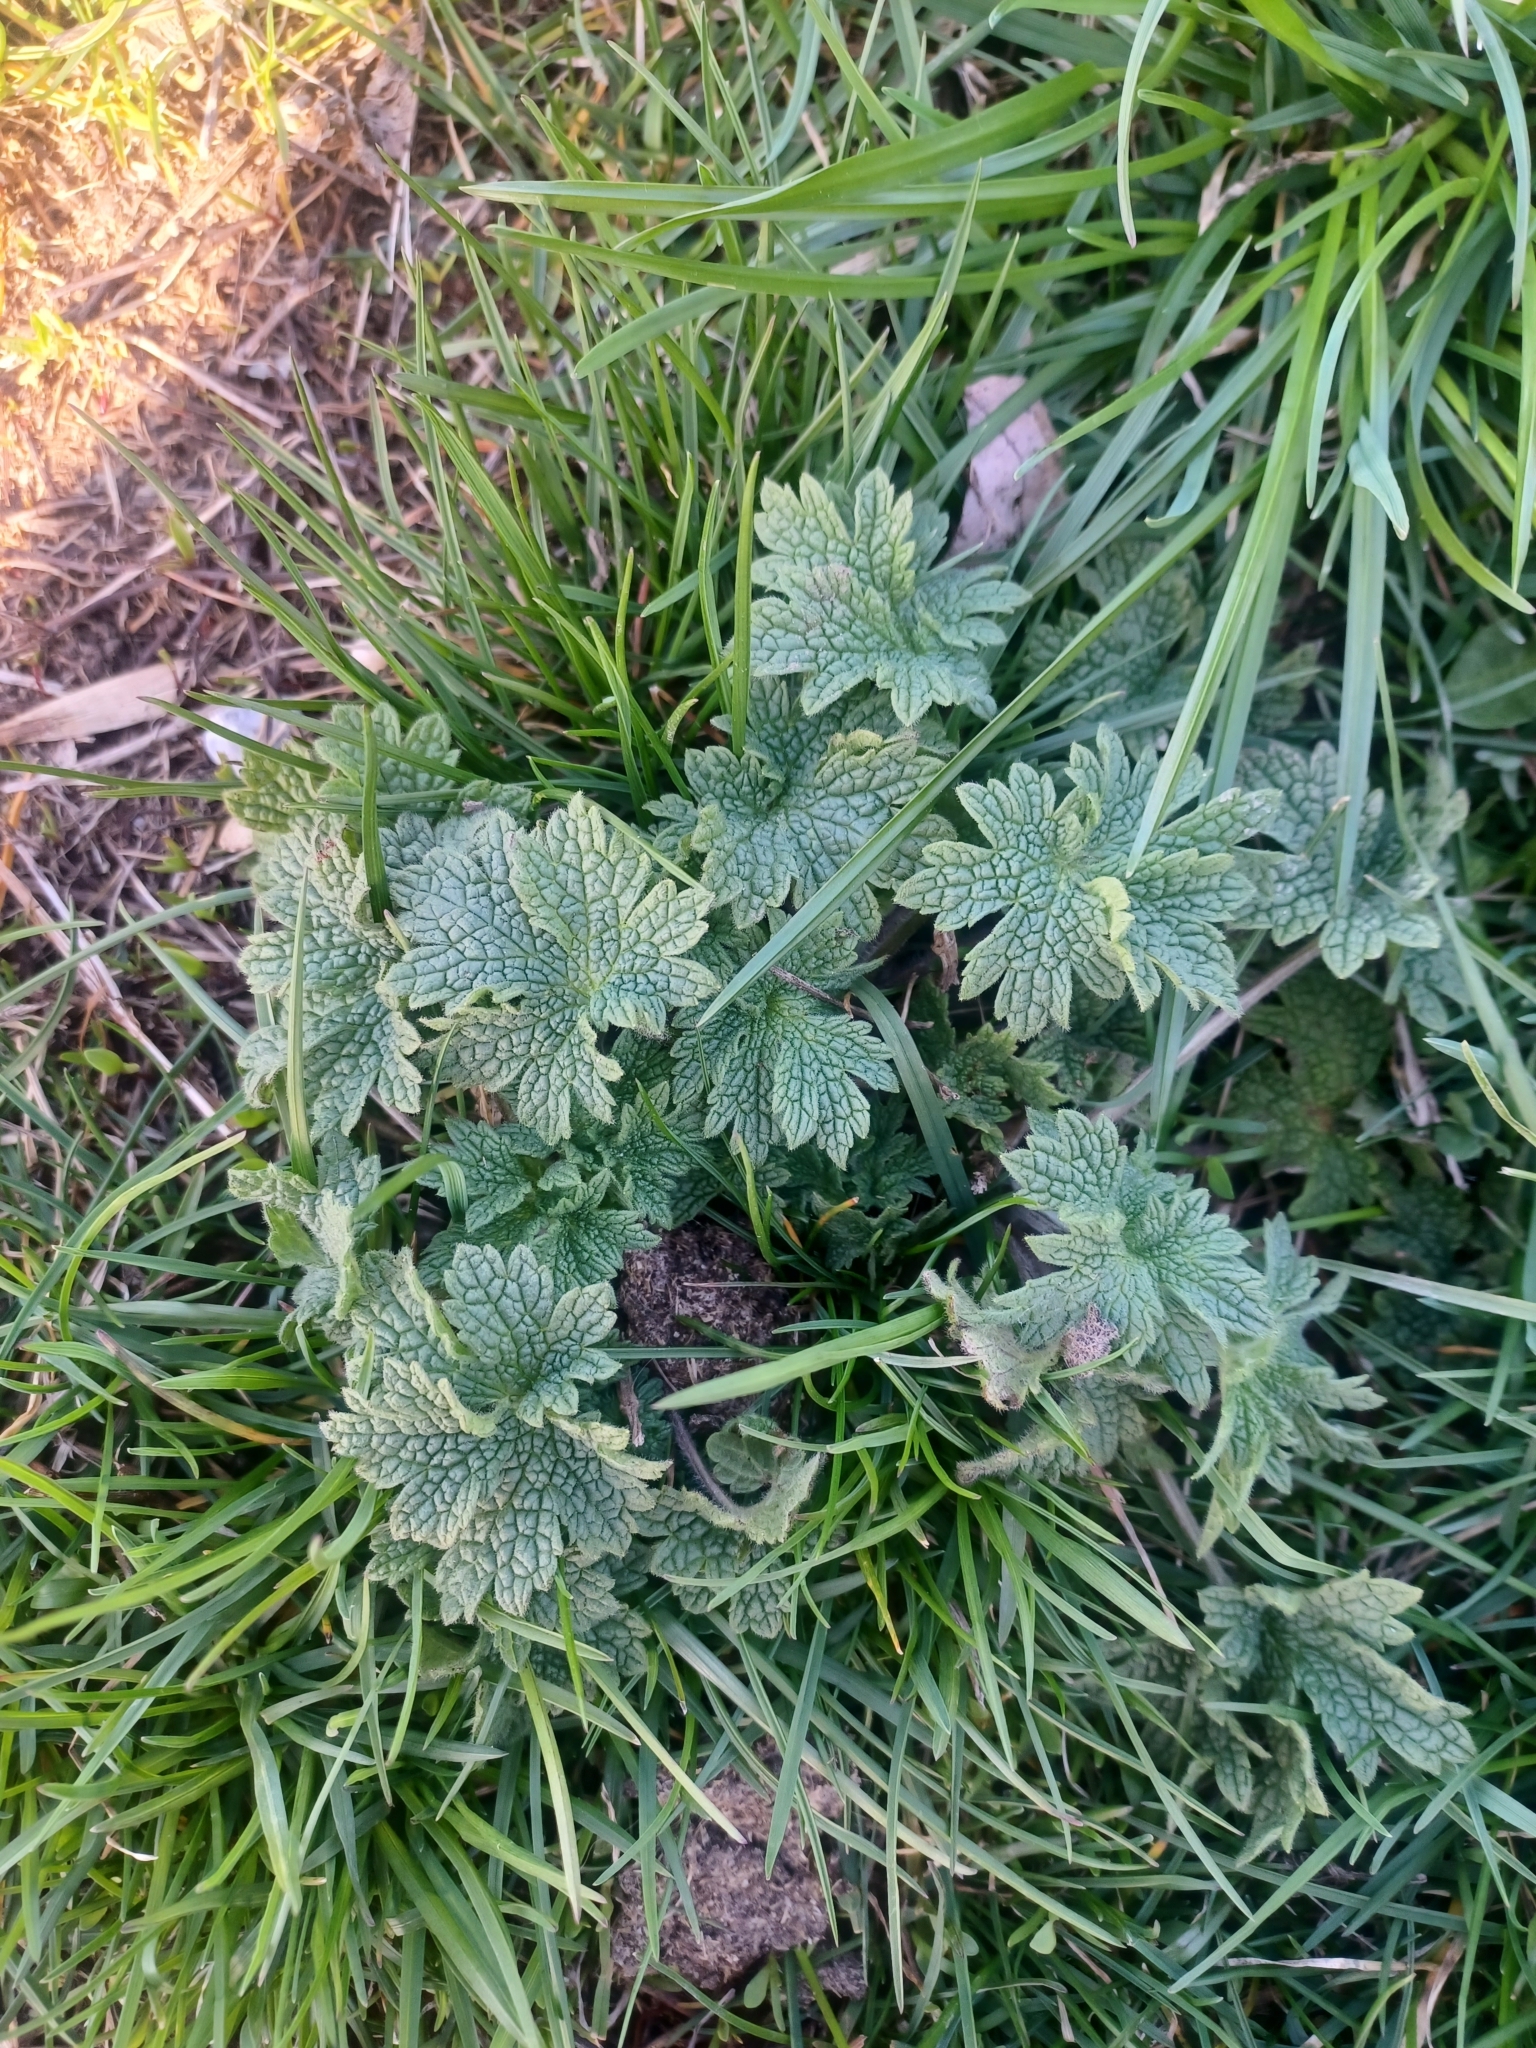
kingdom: Plantae
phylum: Tracheophyta
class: Magnoliopsida
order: Lamiales
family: Lamiaceae
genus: Leonurus
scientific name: Leonurus cardiaca
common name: Motherwort
